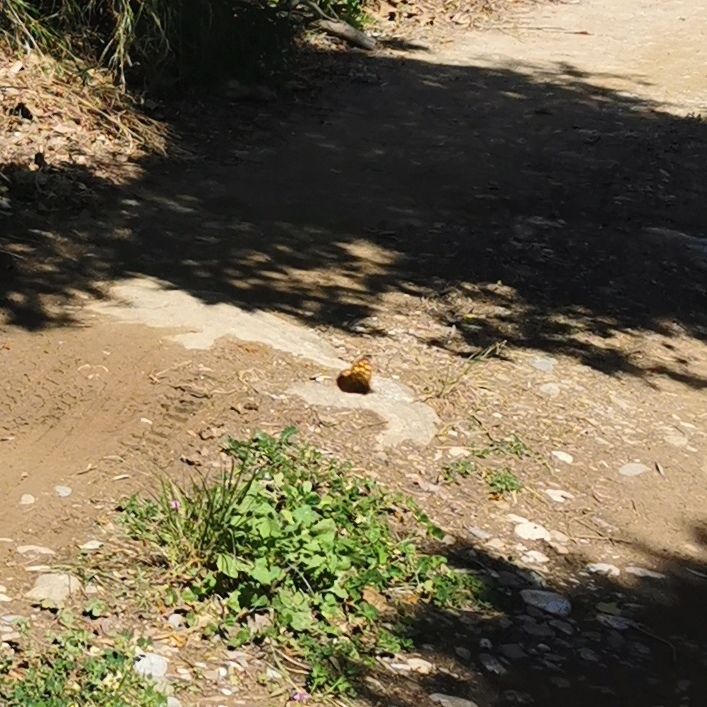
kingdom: Animalia
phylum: Arthropoda
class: Insecta
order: Lepidoptera
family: Nymphalidae
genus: Pararge
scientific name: Pararge aegeria
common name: Speckled wood
